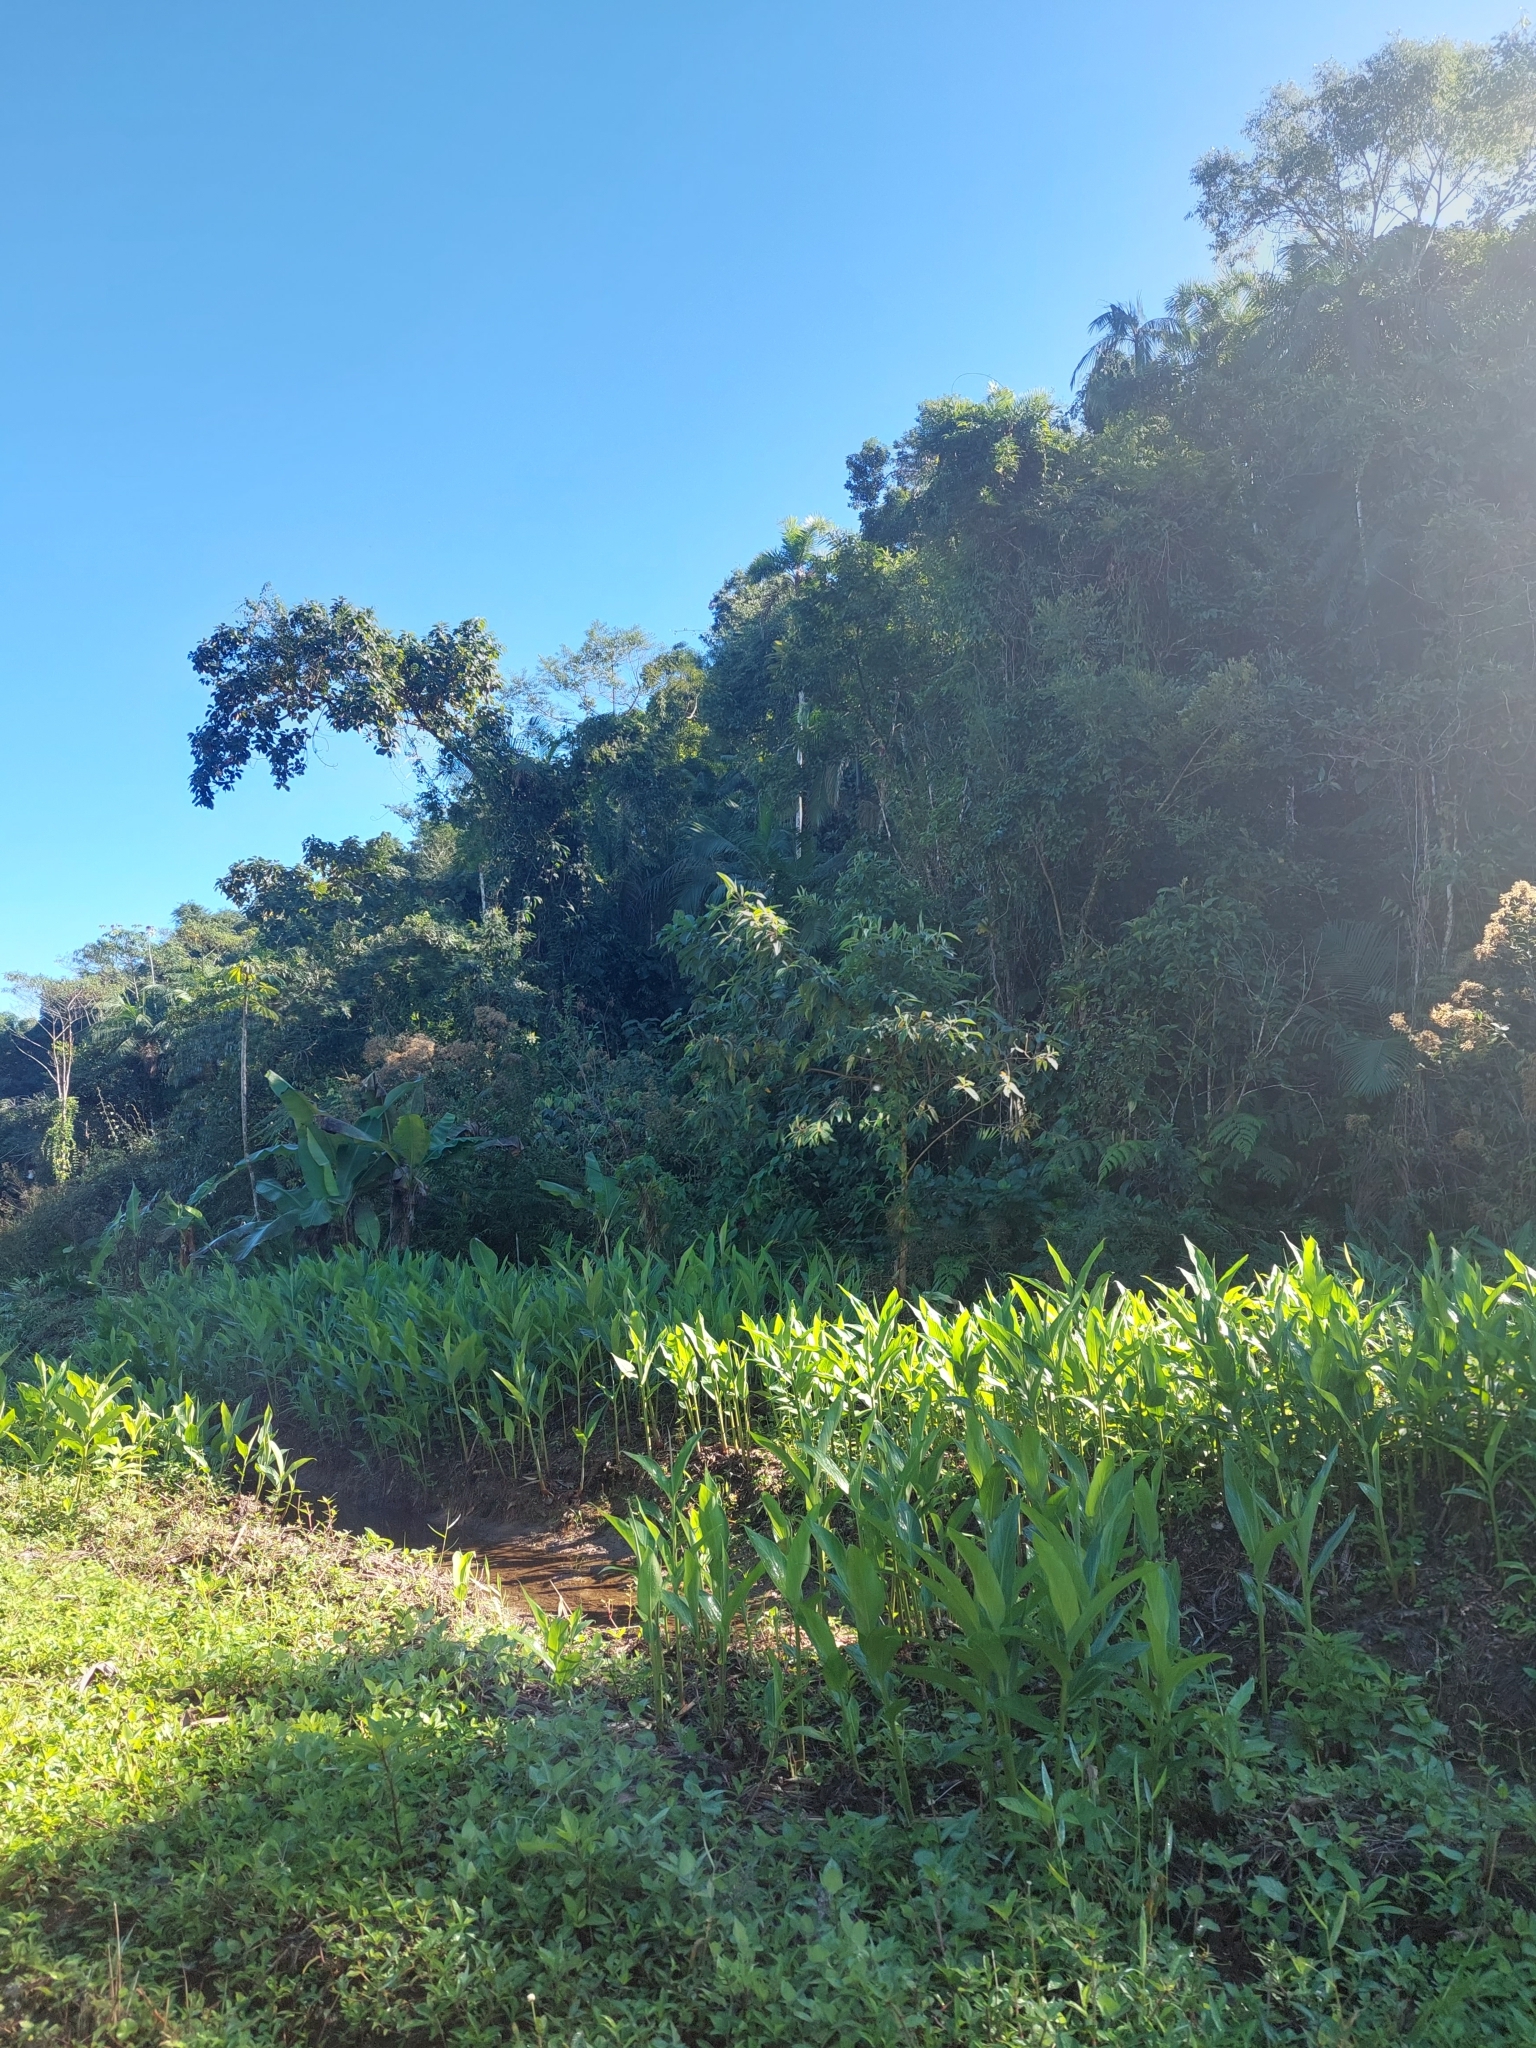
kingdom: Plantae
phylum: Tracheophyta
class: Liliopsida
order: Zingiberales
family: Zingiberaceae
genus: Hedychium
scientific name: Hedychium coronarium
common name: White garland-lily
